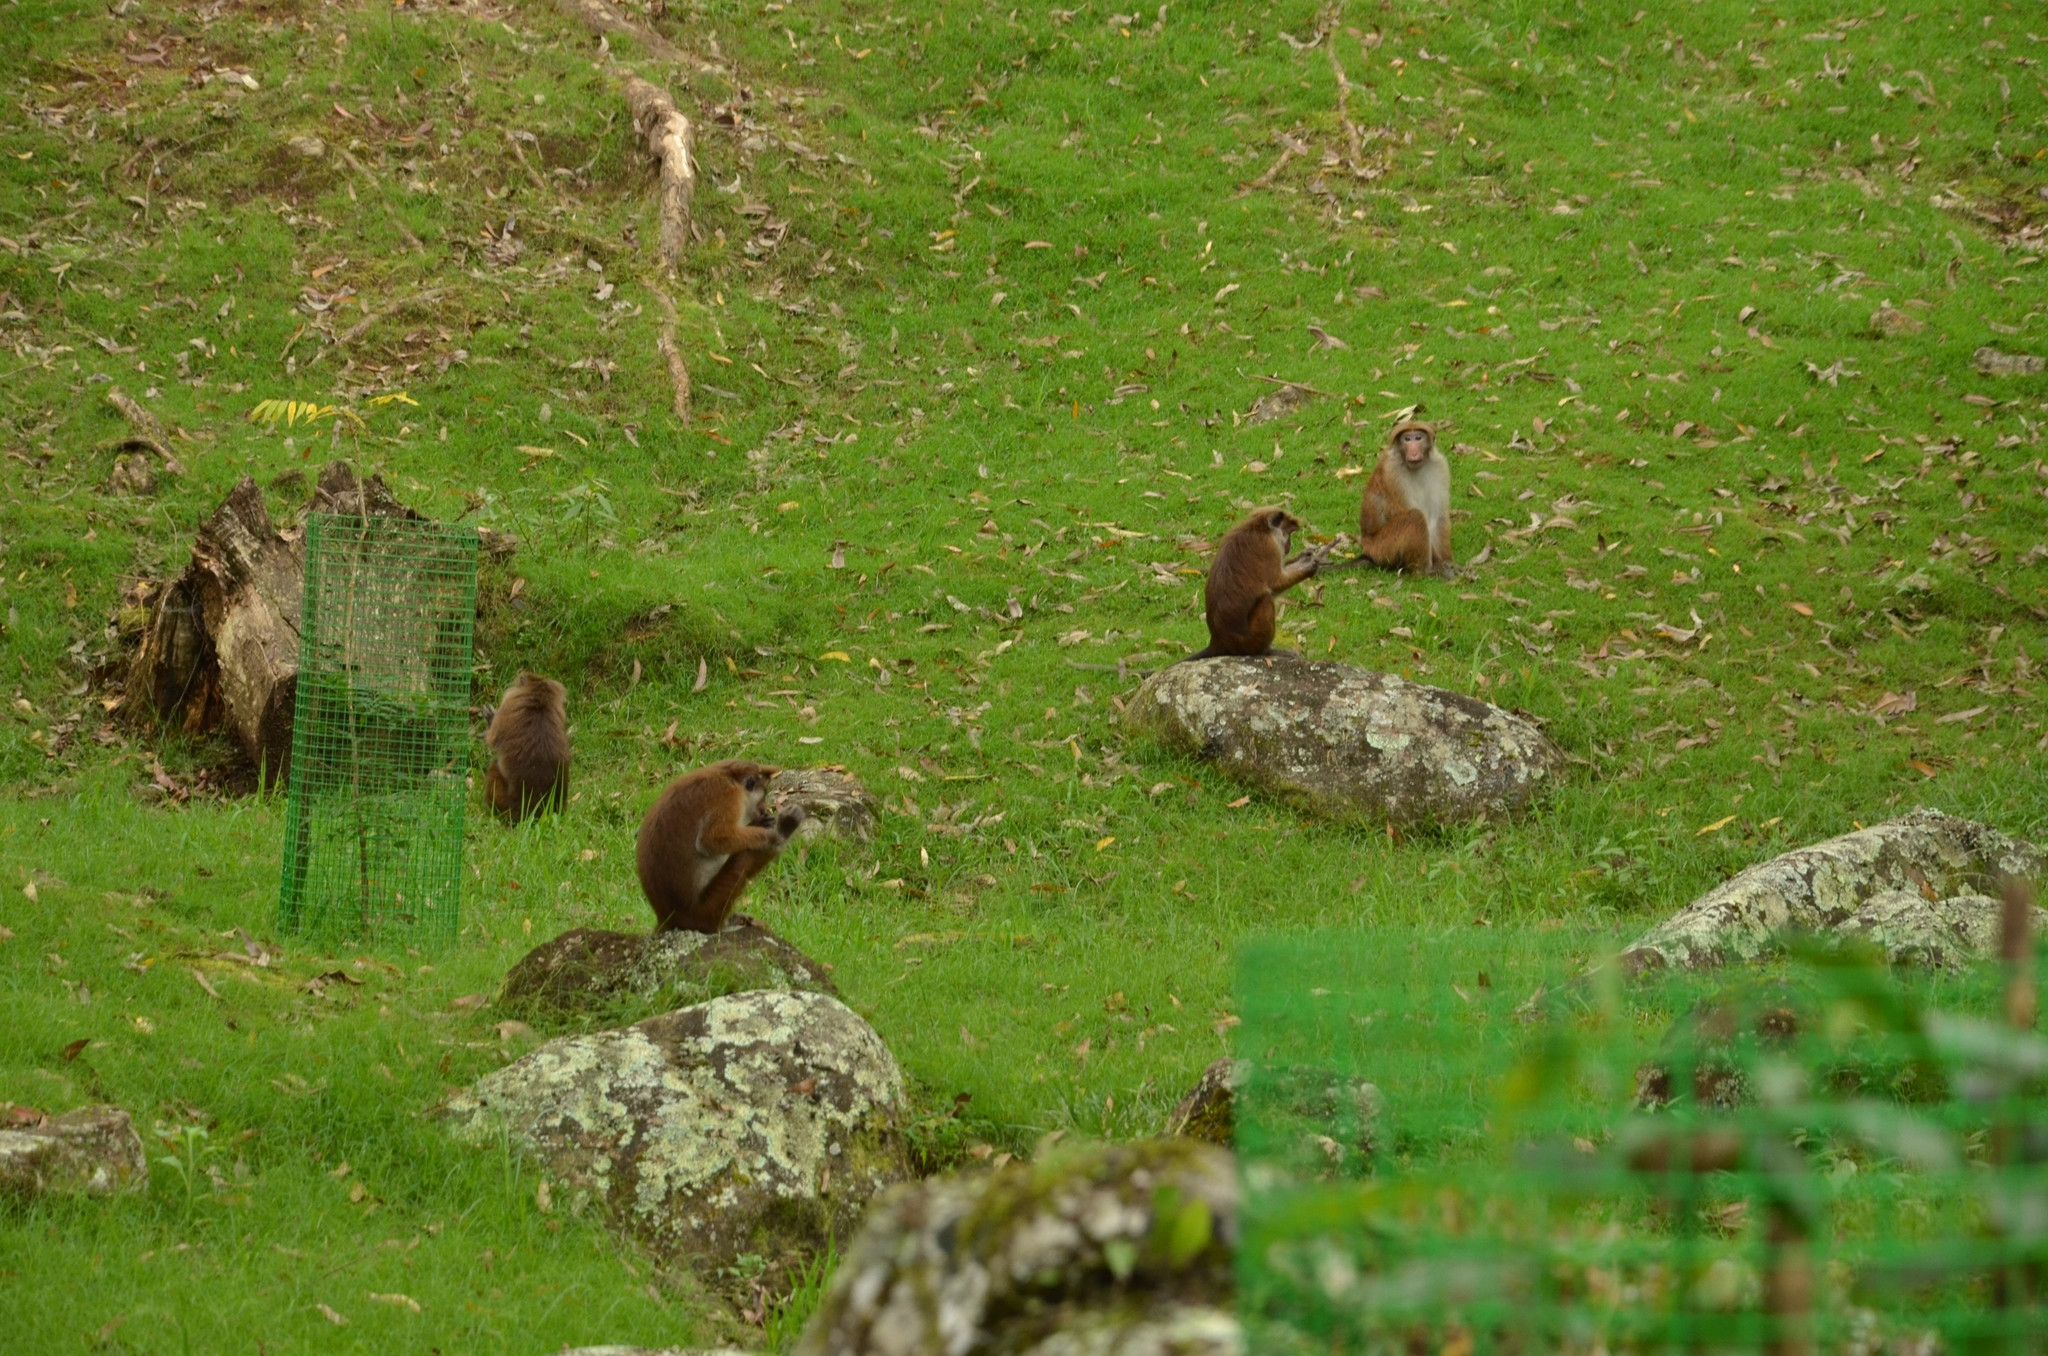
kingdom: Animalia
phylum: Chordata
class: Mammalia
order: Primates
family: Cercopithecidae
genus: Macaca
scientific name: Macaca sinica
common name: Toque macaque
